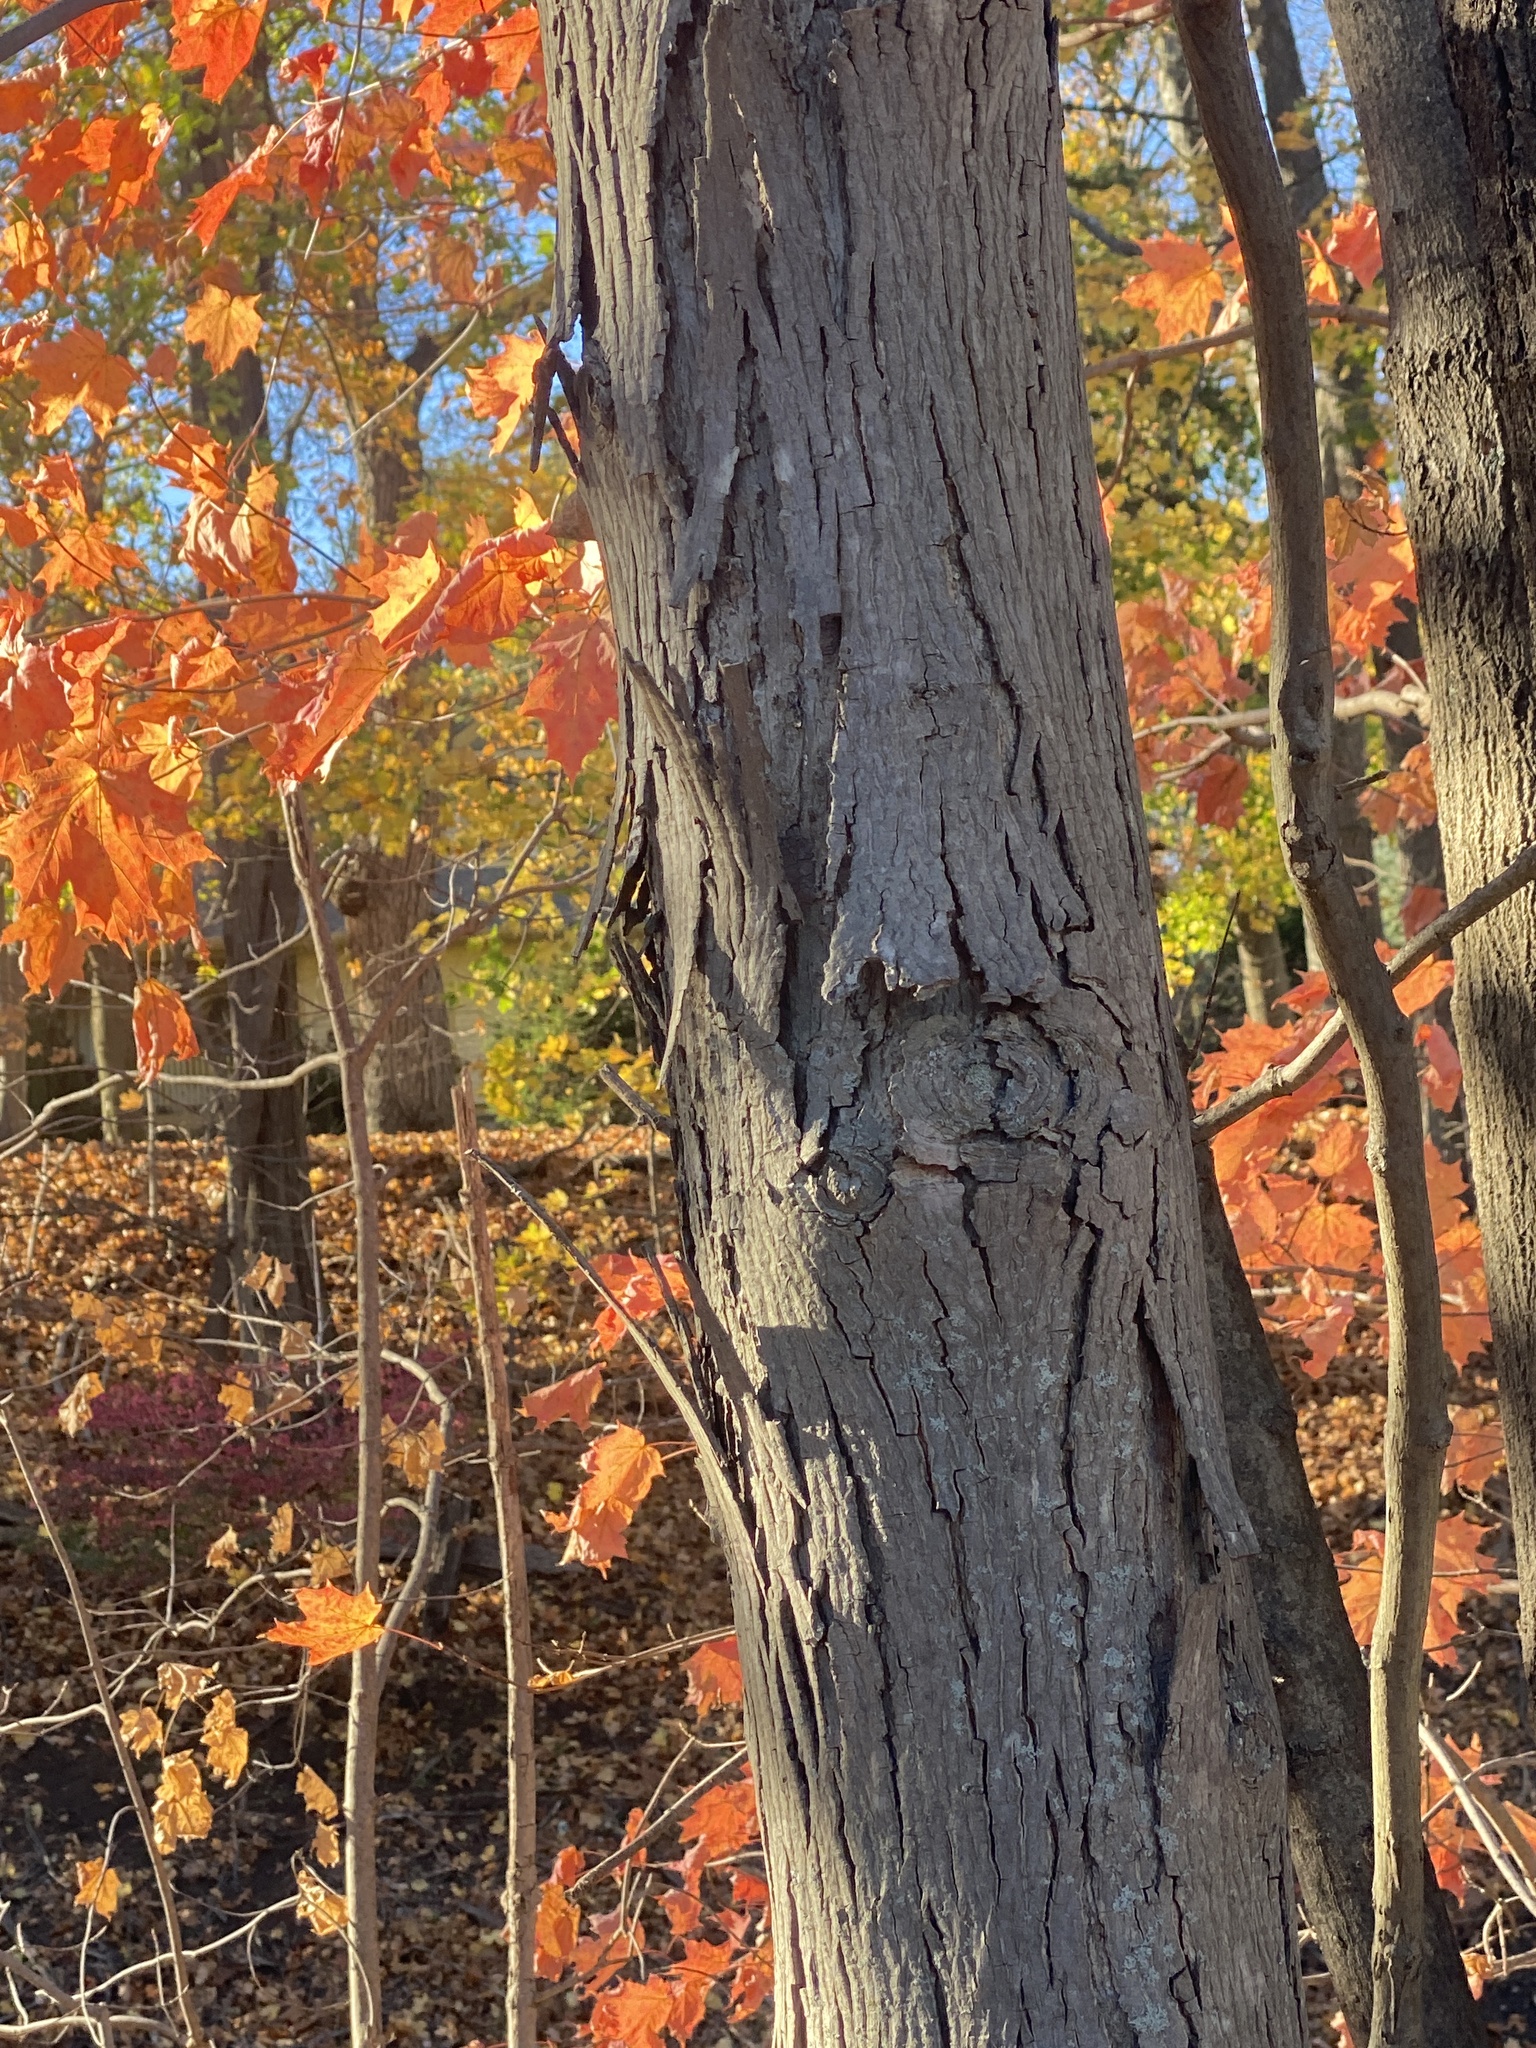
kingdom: Plantae
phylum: Tracheophyta
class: Magnoliopsida
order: Fagales
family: Juglandaceae
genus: Carya
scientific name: Carya ovata
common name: Shagbark hickory
